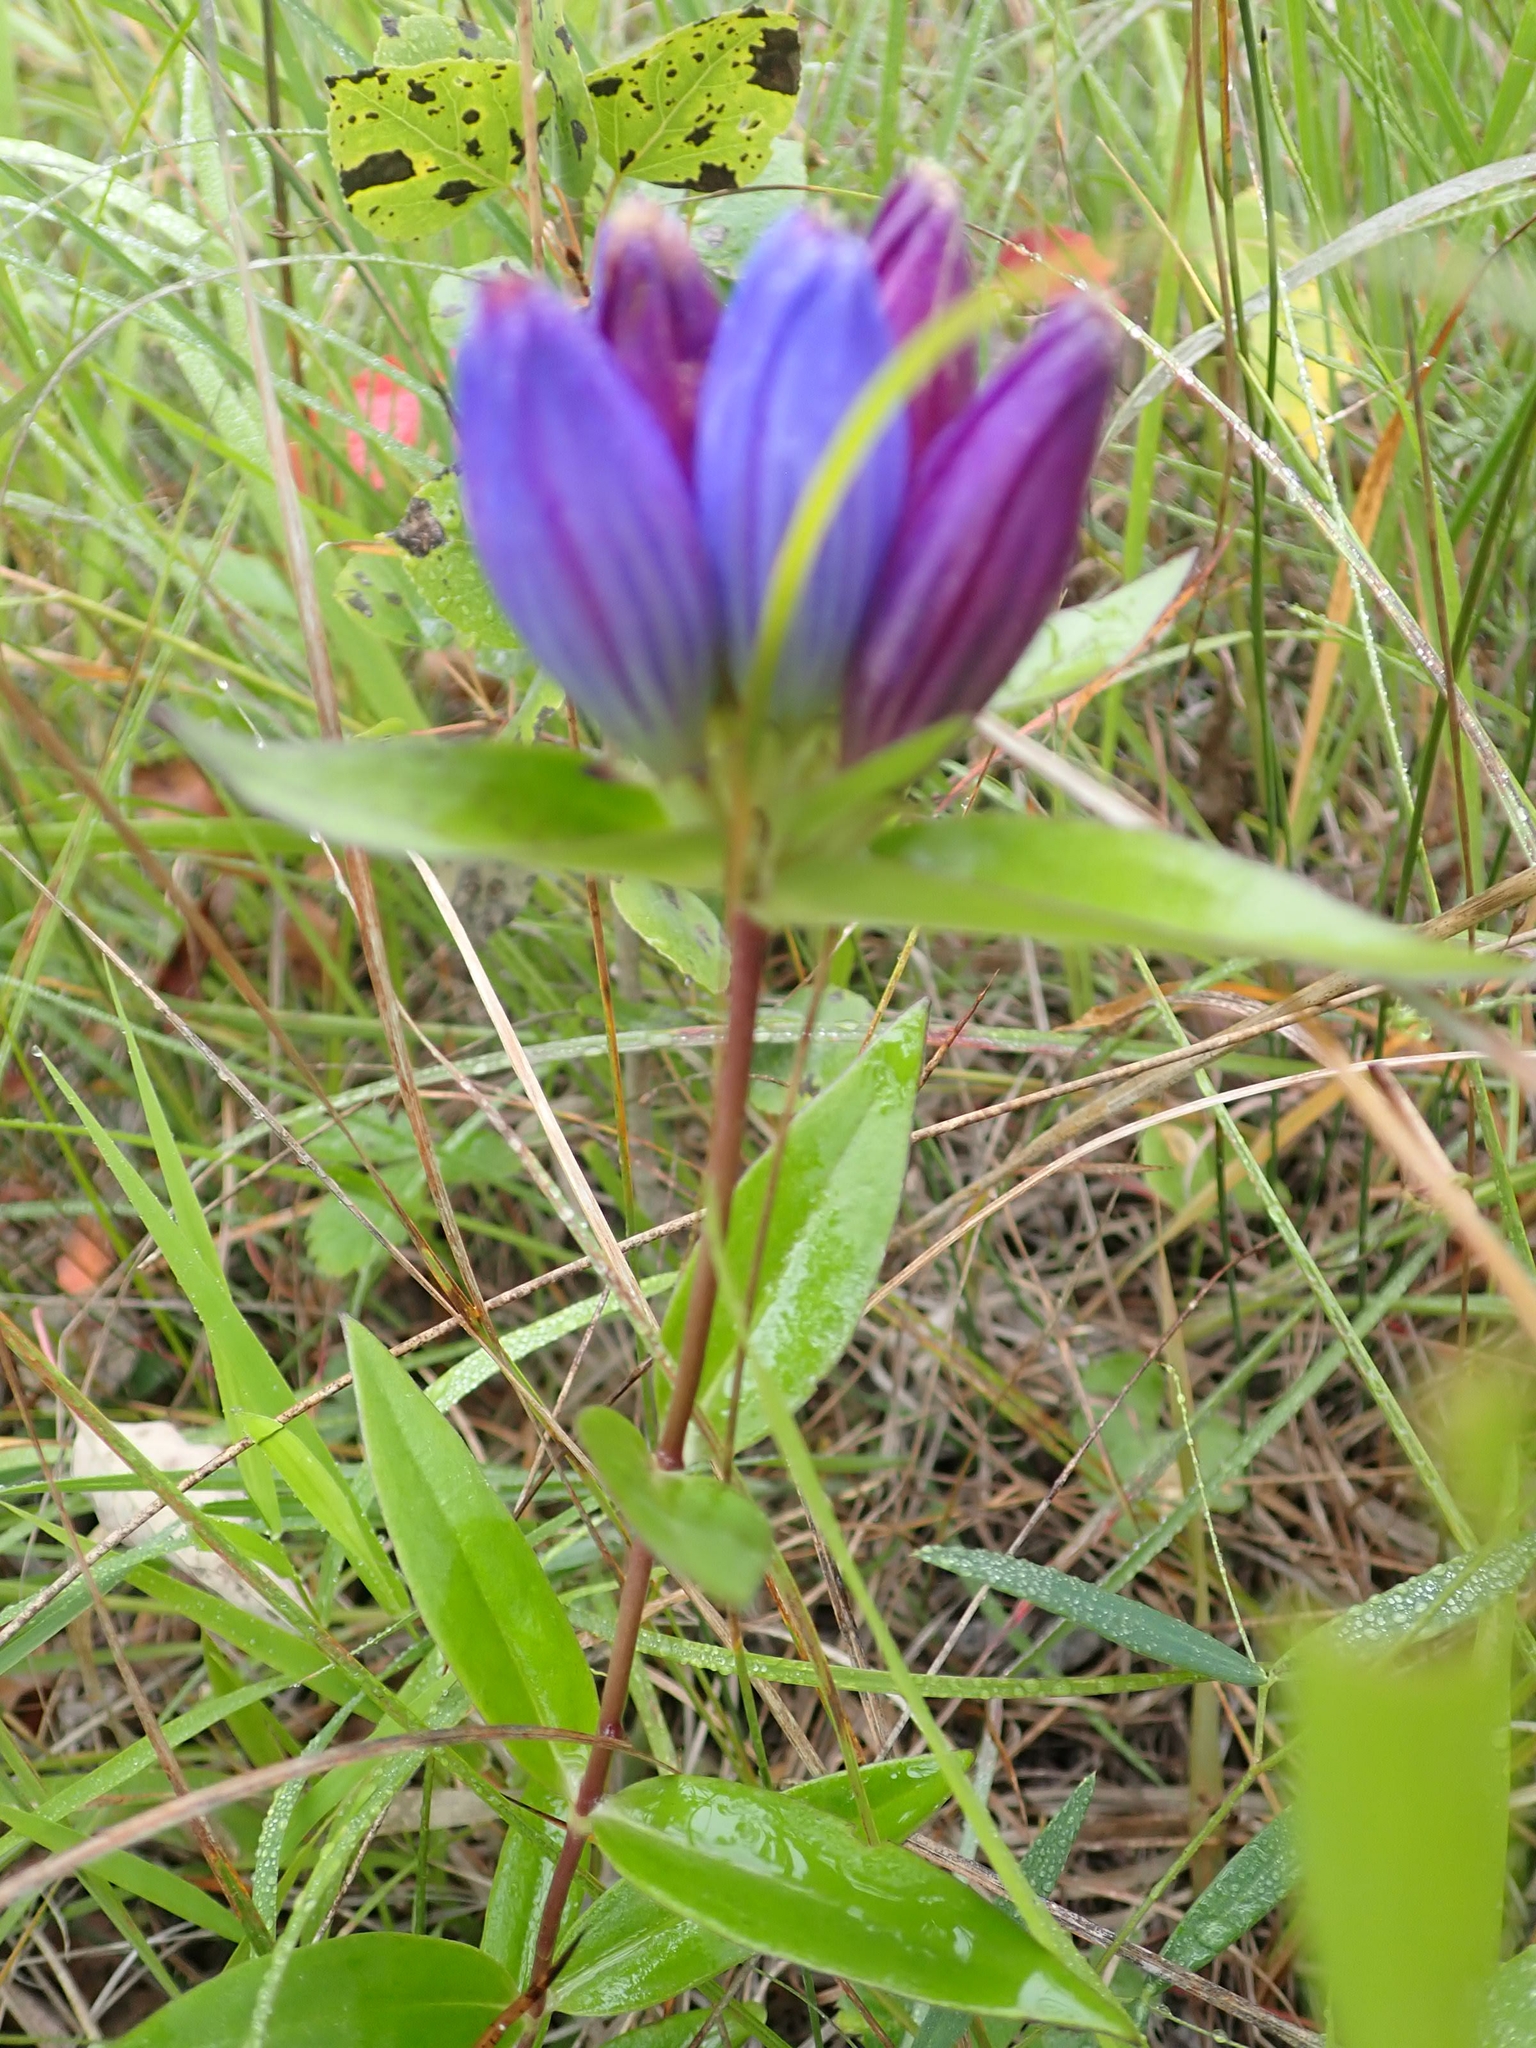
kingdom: Plantae
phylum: Tracheophyta
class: Magnoliopsida
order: Gentianales
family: Gentianaceae
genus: Gentiana
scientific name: Gentiana andrewsii
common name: Bottle gentian
